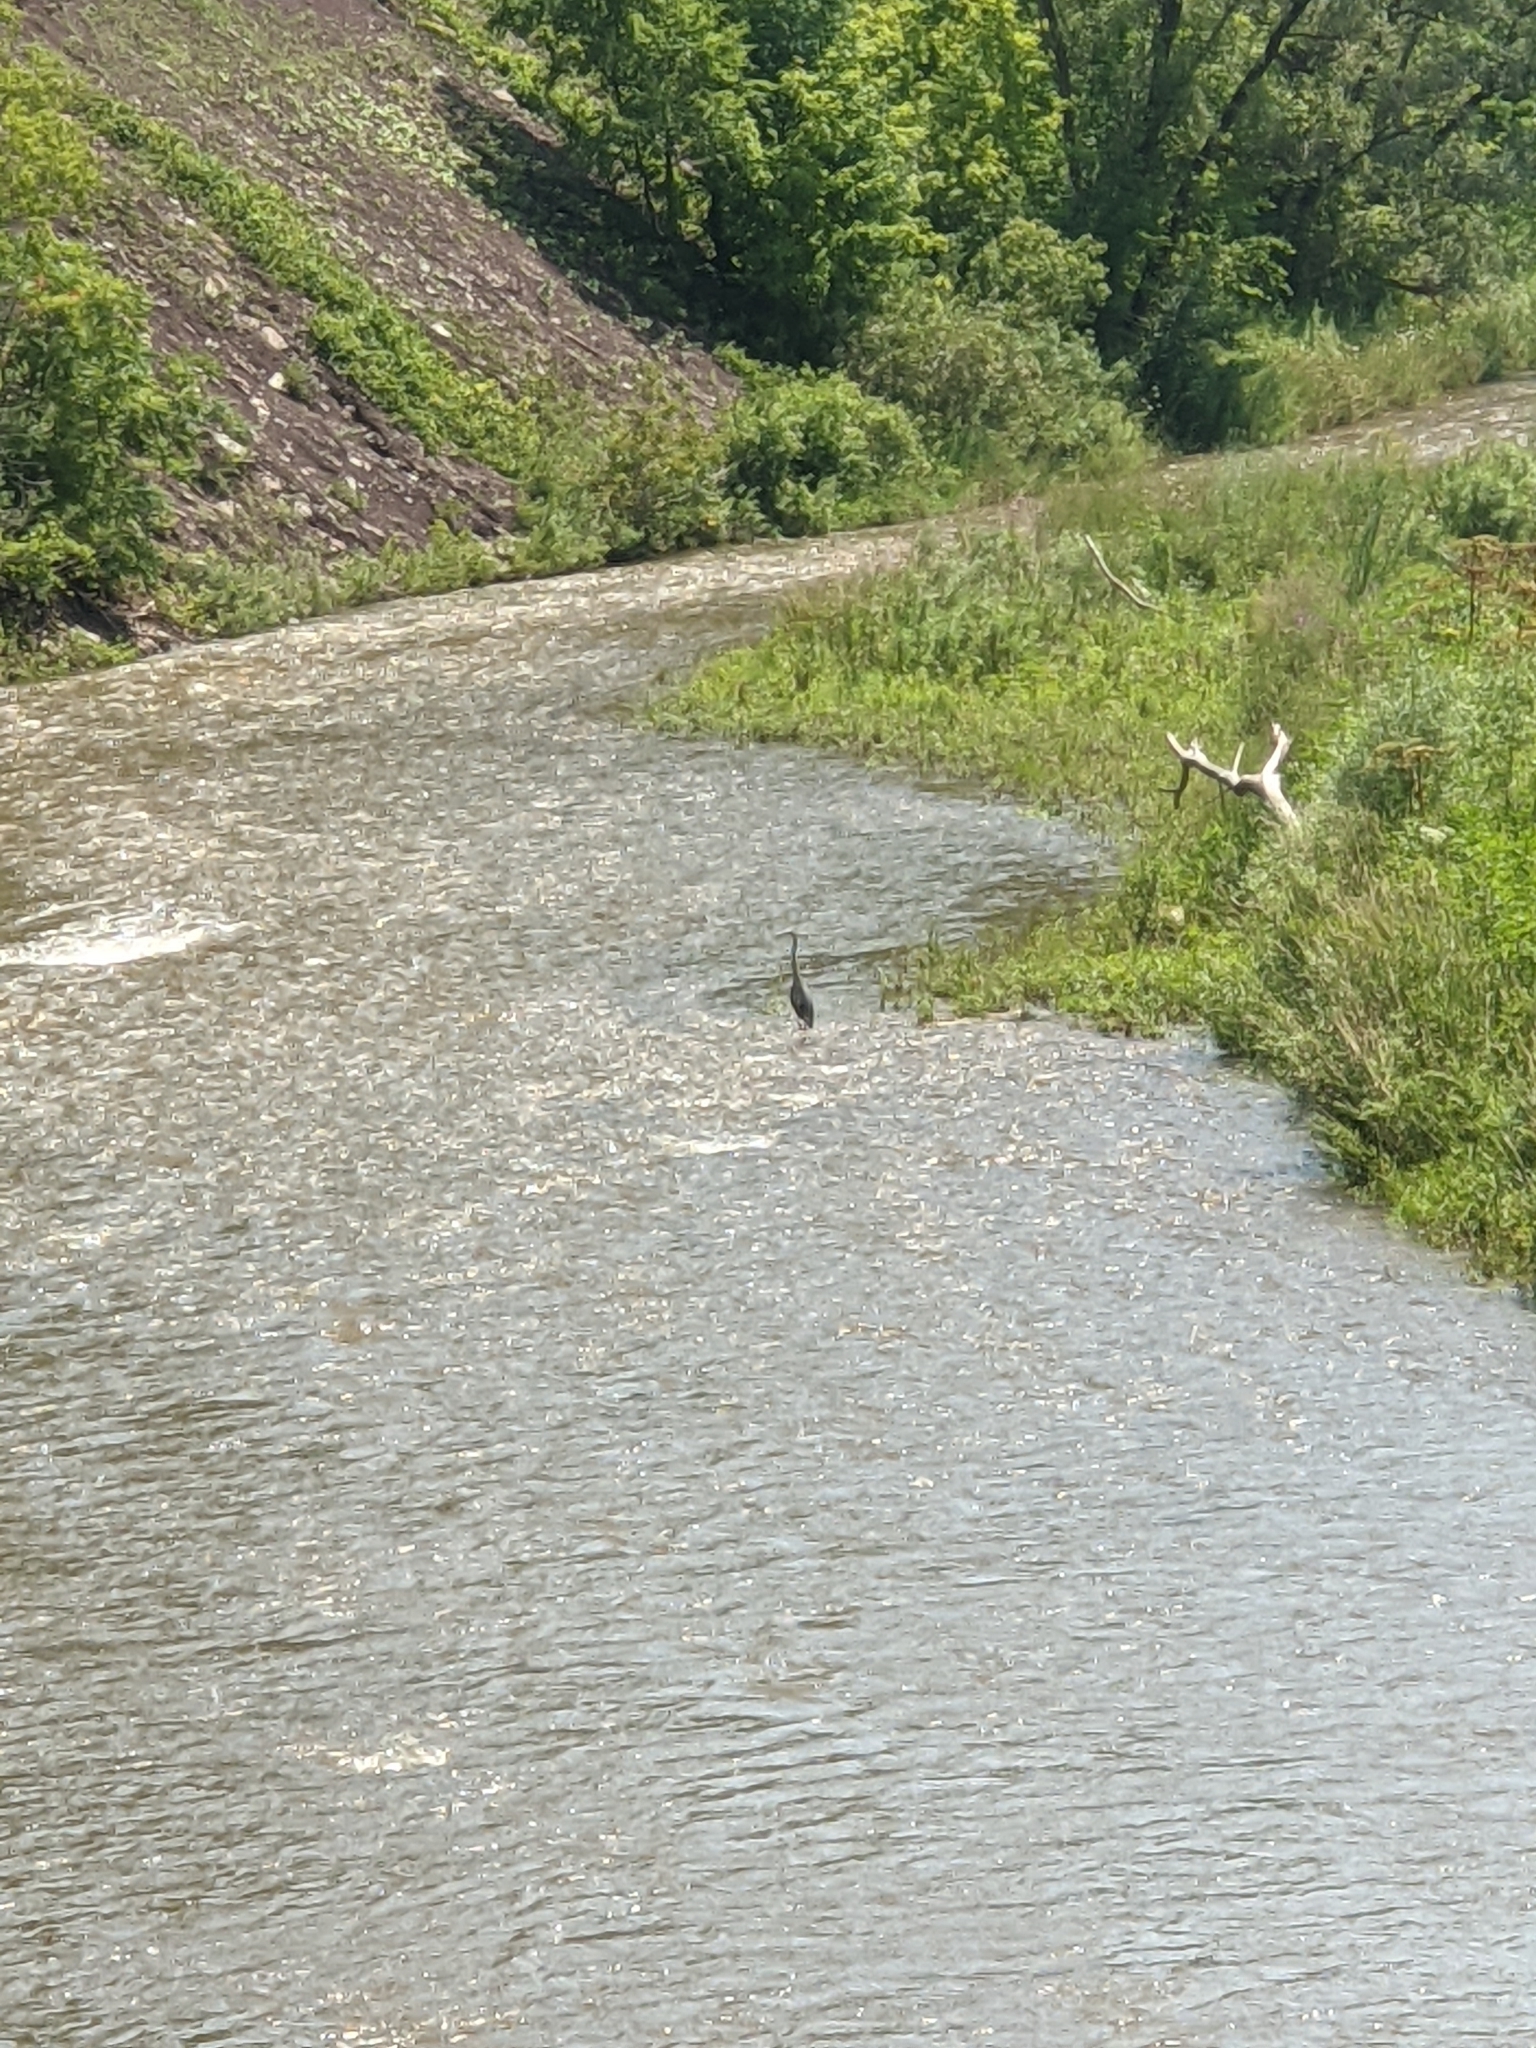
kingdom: Animalia
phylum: Chordata
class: Aves
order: Pelecaniformes
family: Ardeidae
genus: Ardea
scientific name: Ardea herodias
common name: Great blue heron
